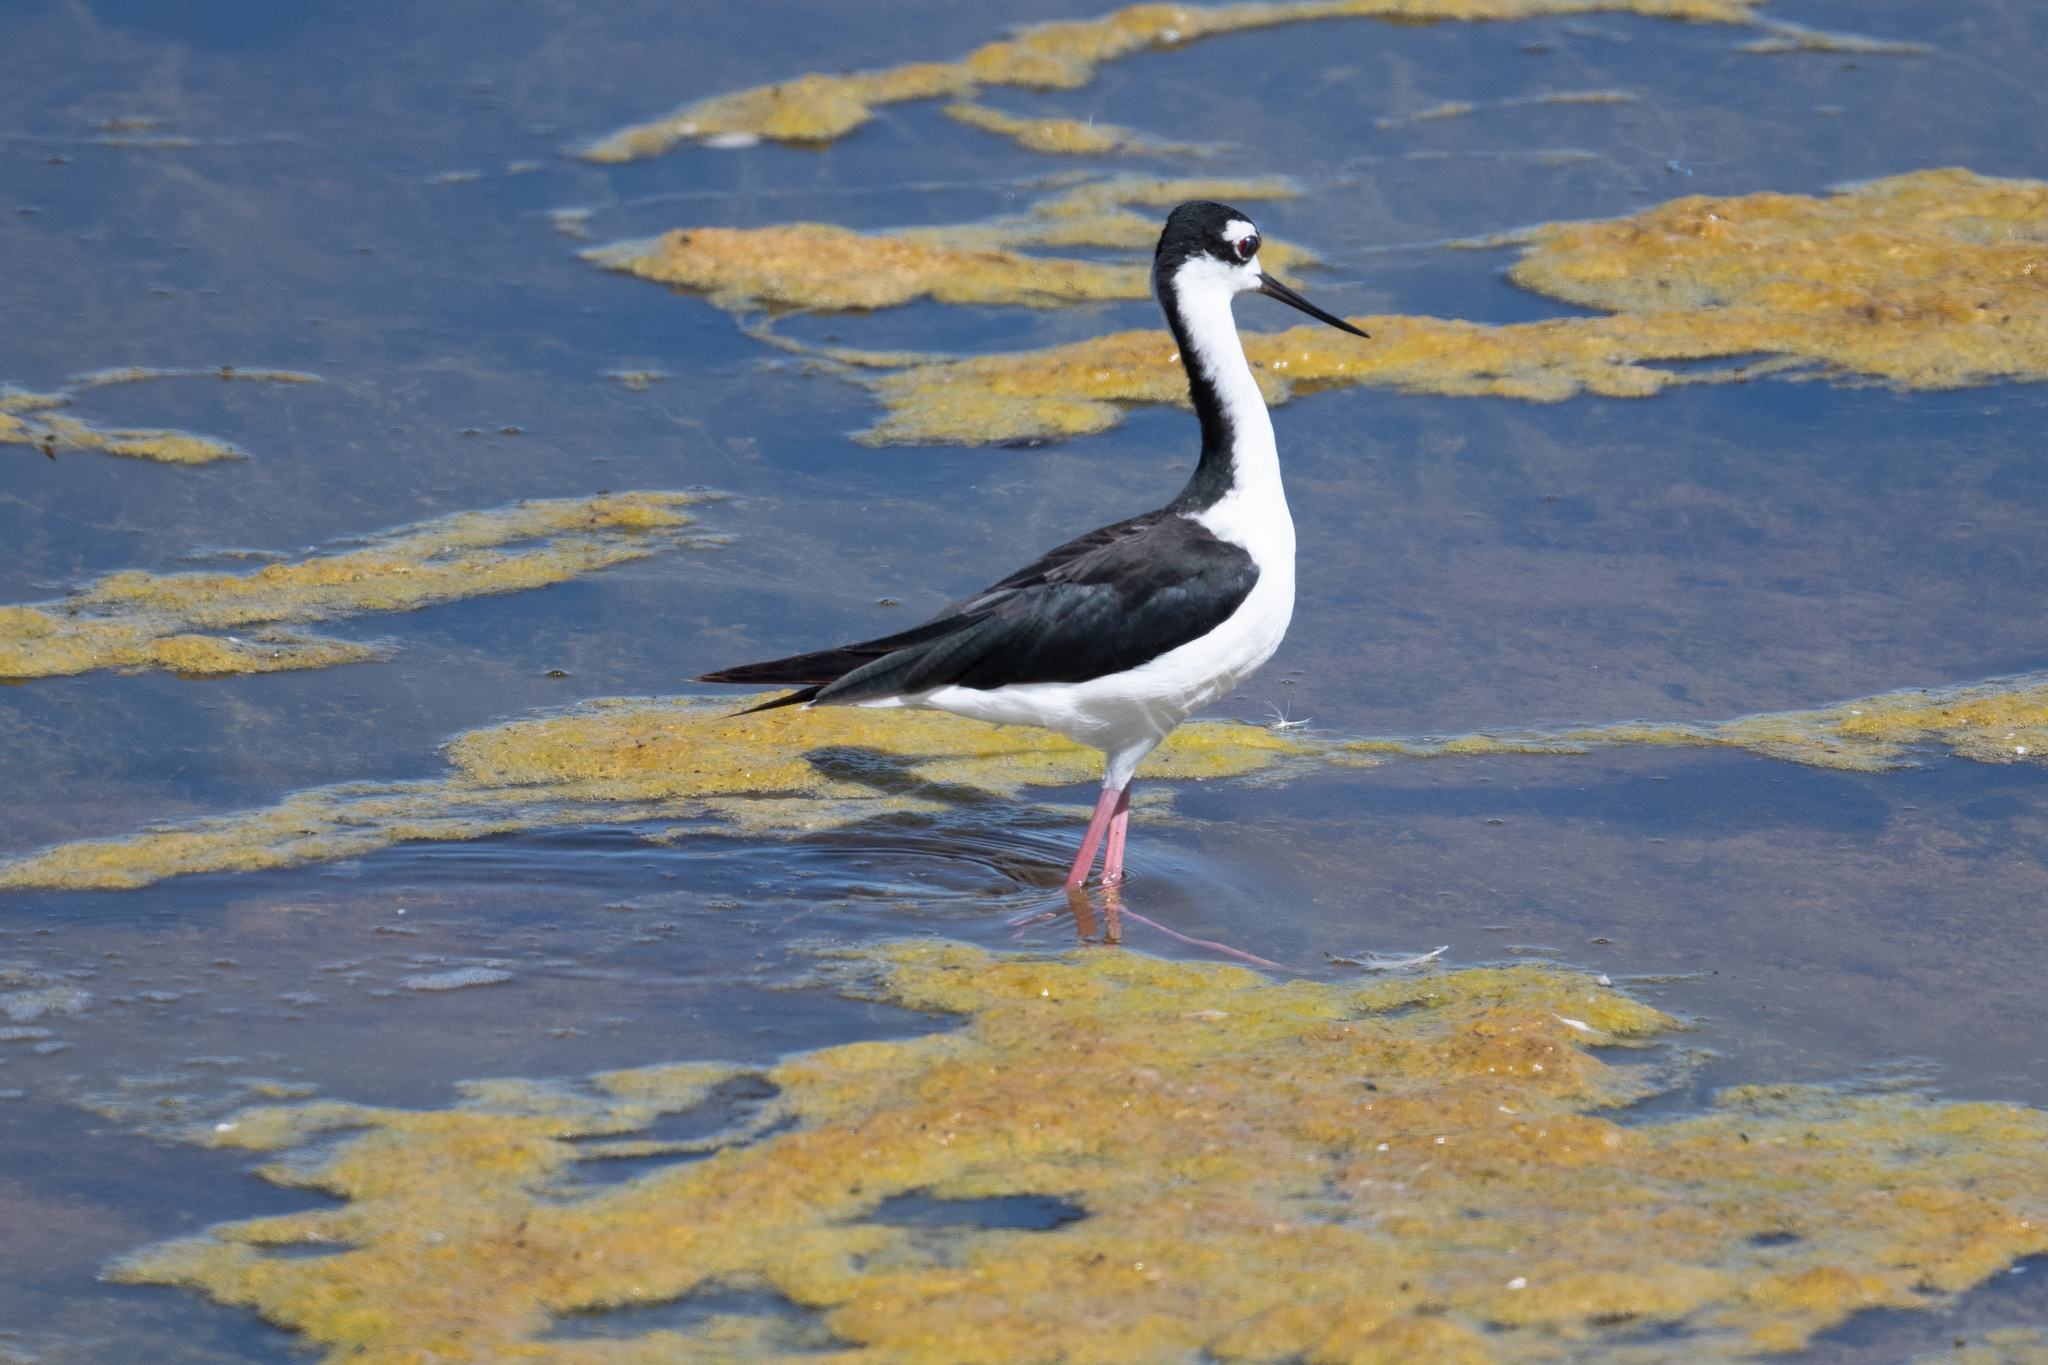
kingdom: Animalia
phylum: Chordata
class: Aves
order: Charadriiformes
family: Recurvirostridae
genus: Himantopus
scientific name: Himantopus mexicanus
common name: Black-necked stilt
